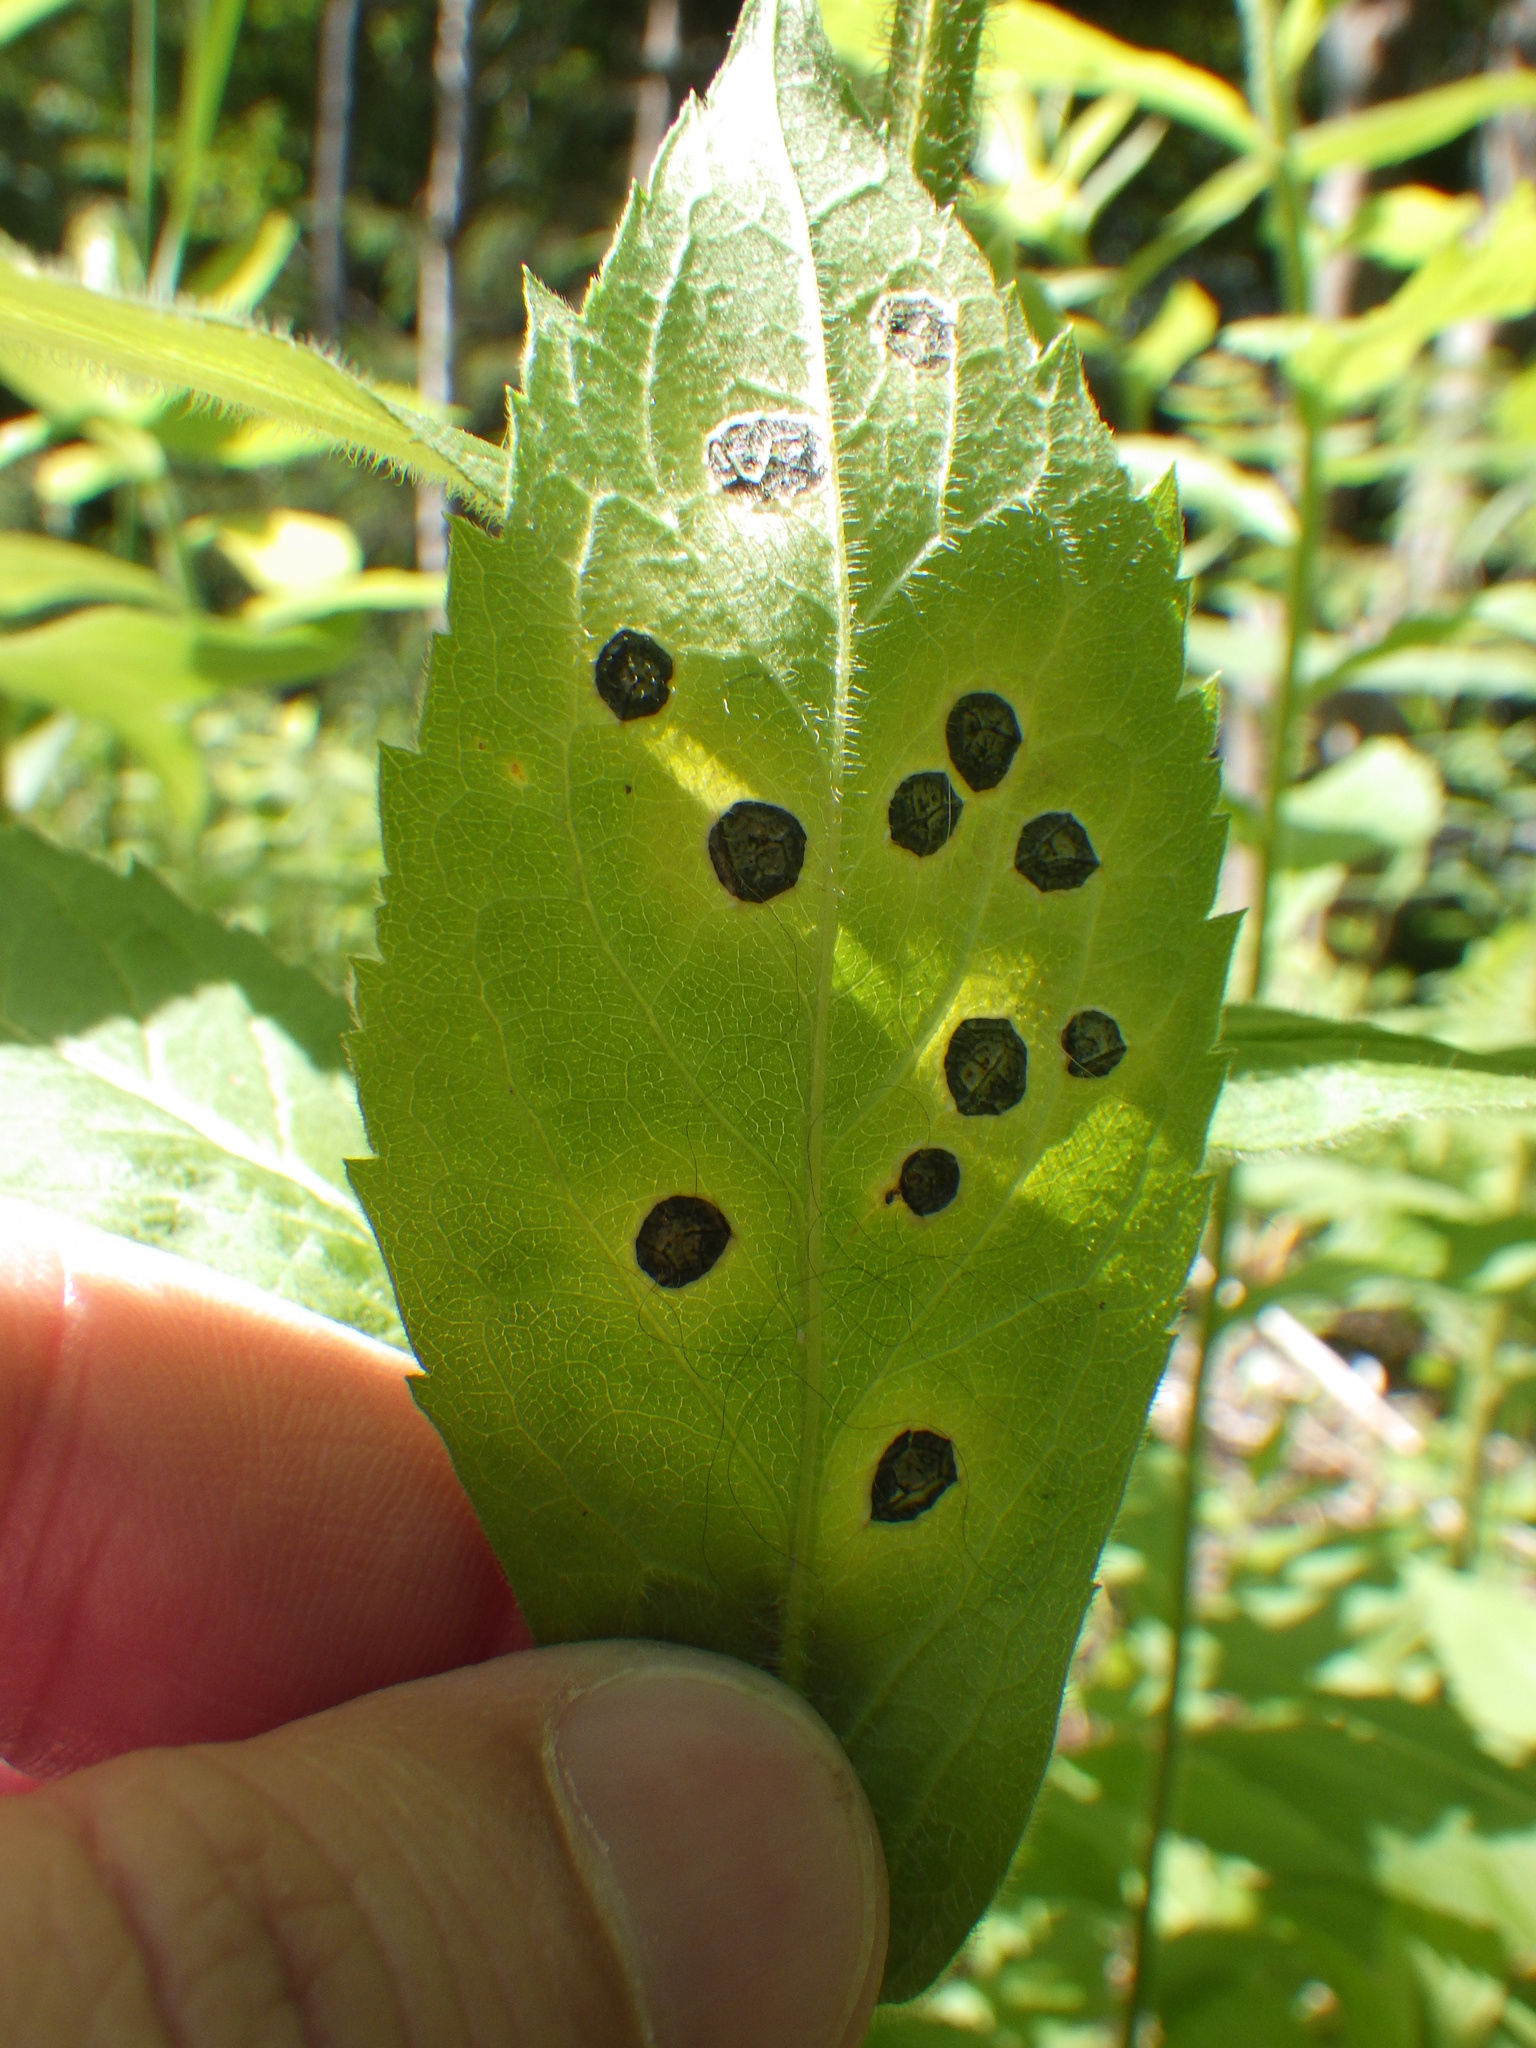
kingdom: Animalia
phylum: Arthropoda
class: Insecta
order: Diptera
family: Cecidomyiidae
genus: Asteromyia
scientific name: Asteromyia carbonifera
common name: Carbonifera goldenrod gall midge
